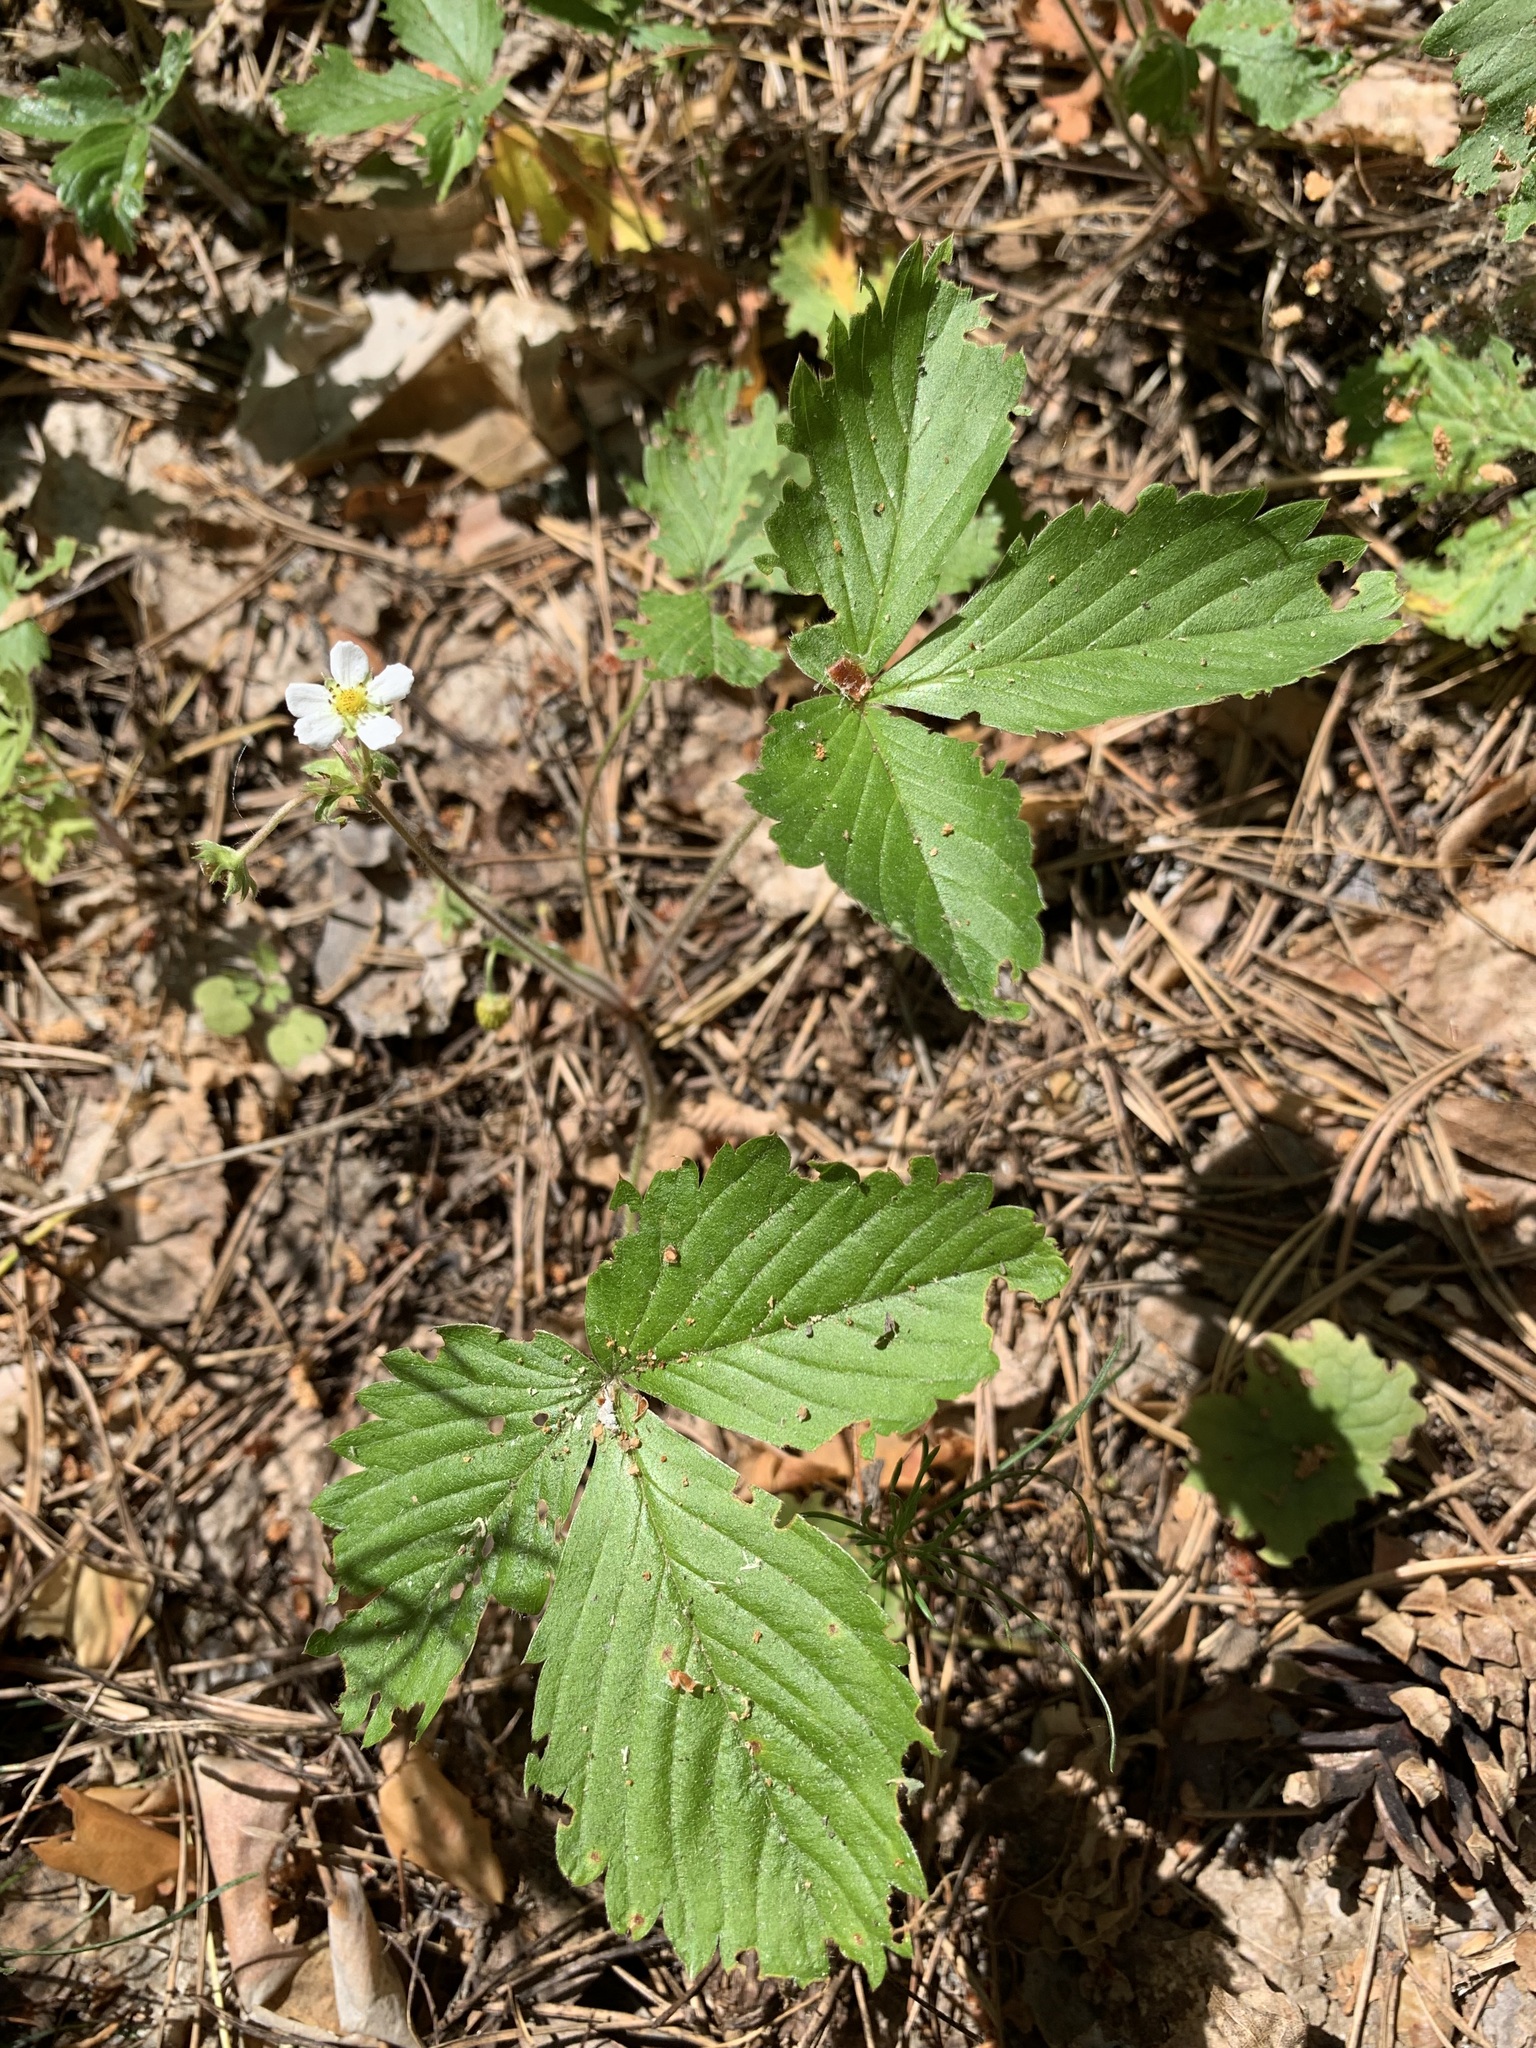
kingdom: Plantae
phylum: Tracheophyta
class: Magnoliopsida
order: Rosales
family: Rosaceae
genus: Fragaria
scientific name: Fragaria vesca
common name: Wild strawberry
